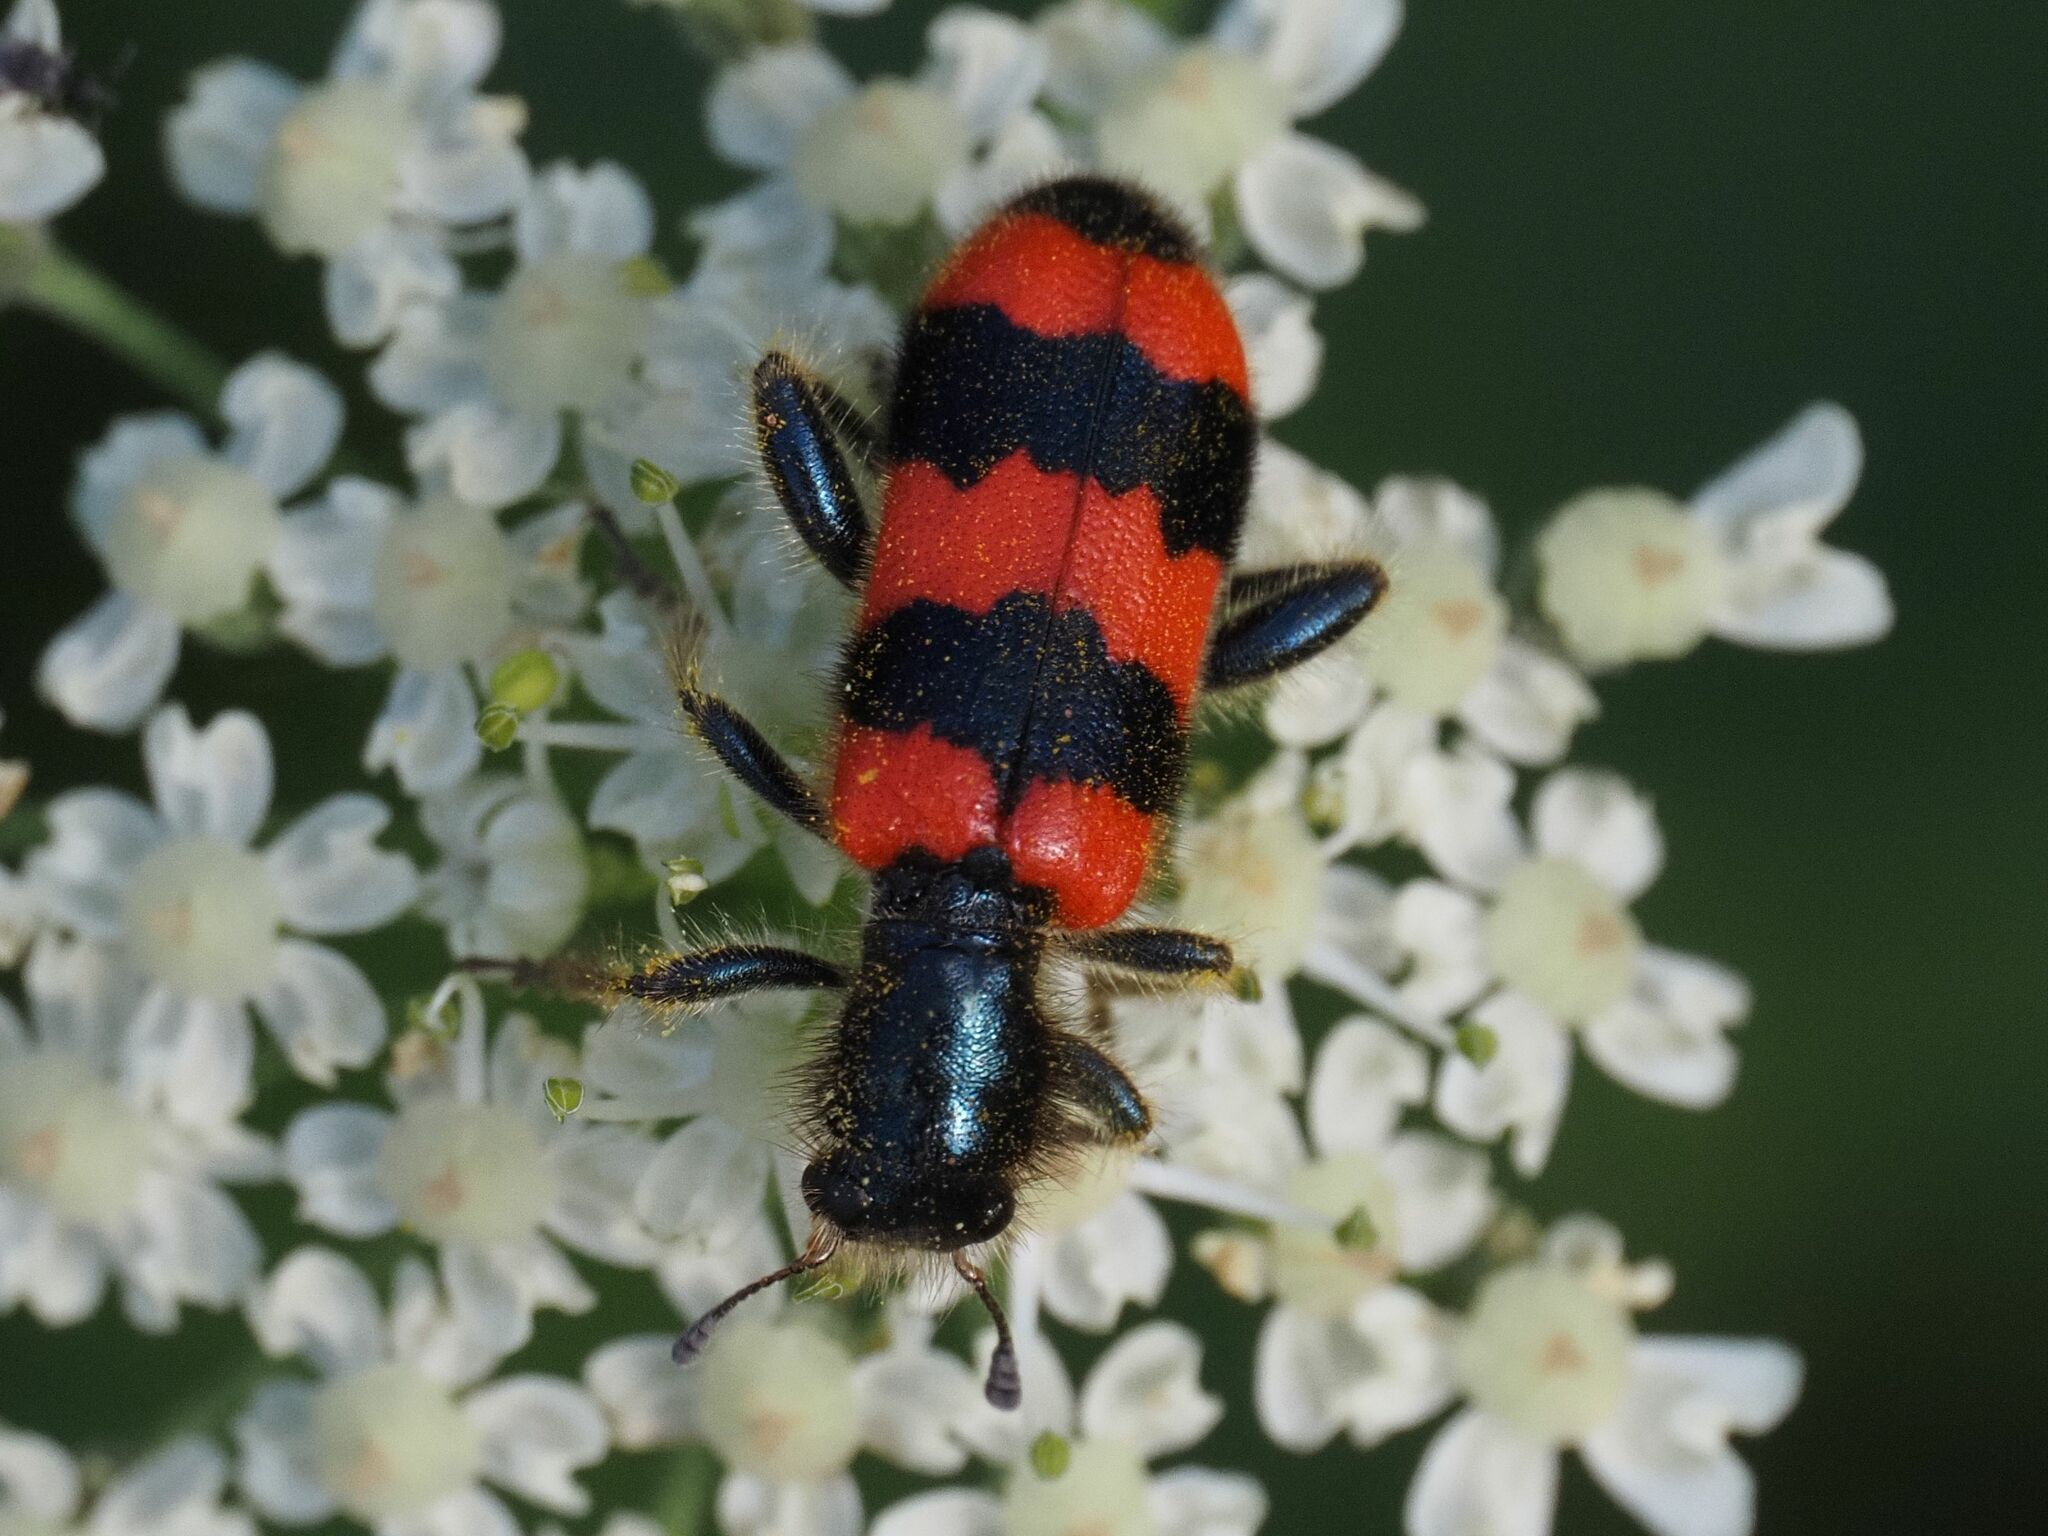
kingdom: Animalia
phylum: Arthropoda
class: Insecta
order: Coleoptera
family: Cleridae
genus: Trichodes
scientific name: Trichodes apiarius
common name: Bee-eating beetle
